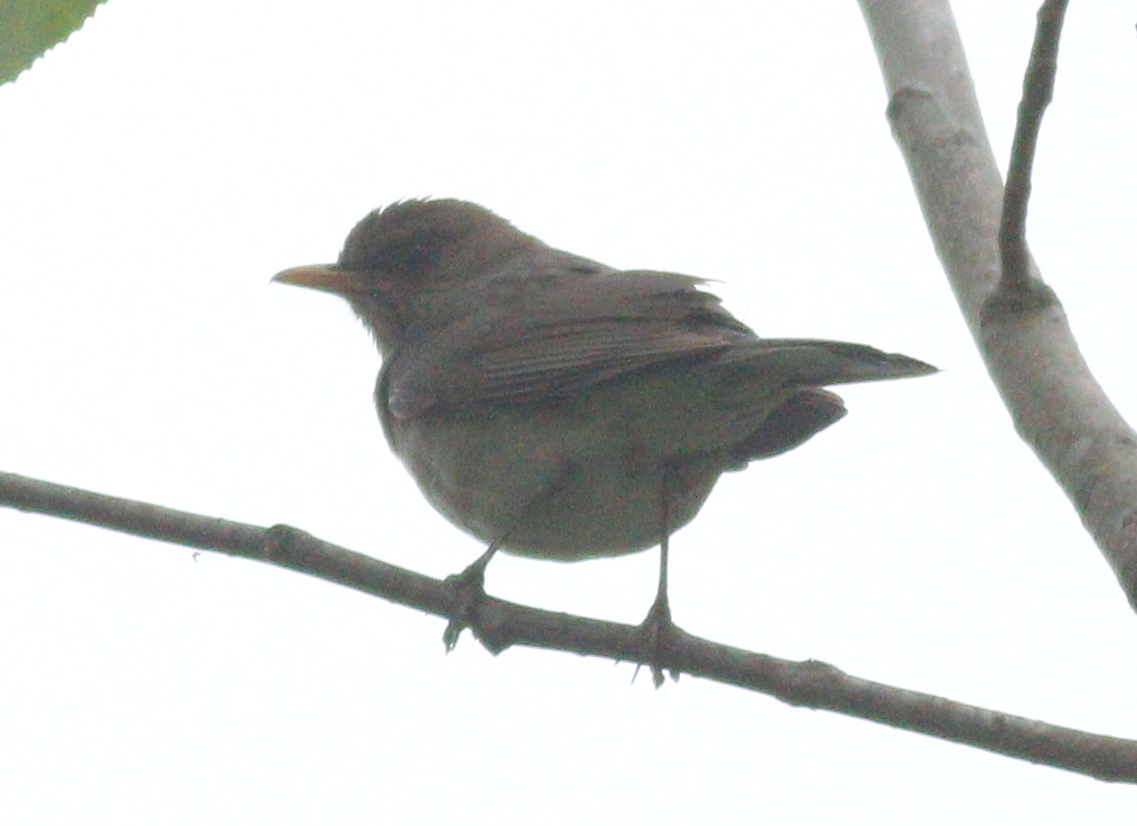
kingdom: Animalia
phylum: Chordata
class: Aves
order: Passeriformes
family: Turdidae
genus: Turdus
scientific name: Turdus amaurochalinus
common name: Creamy-bellied thrush
